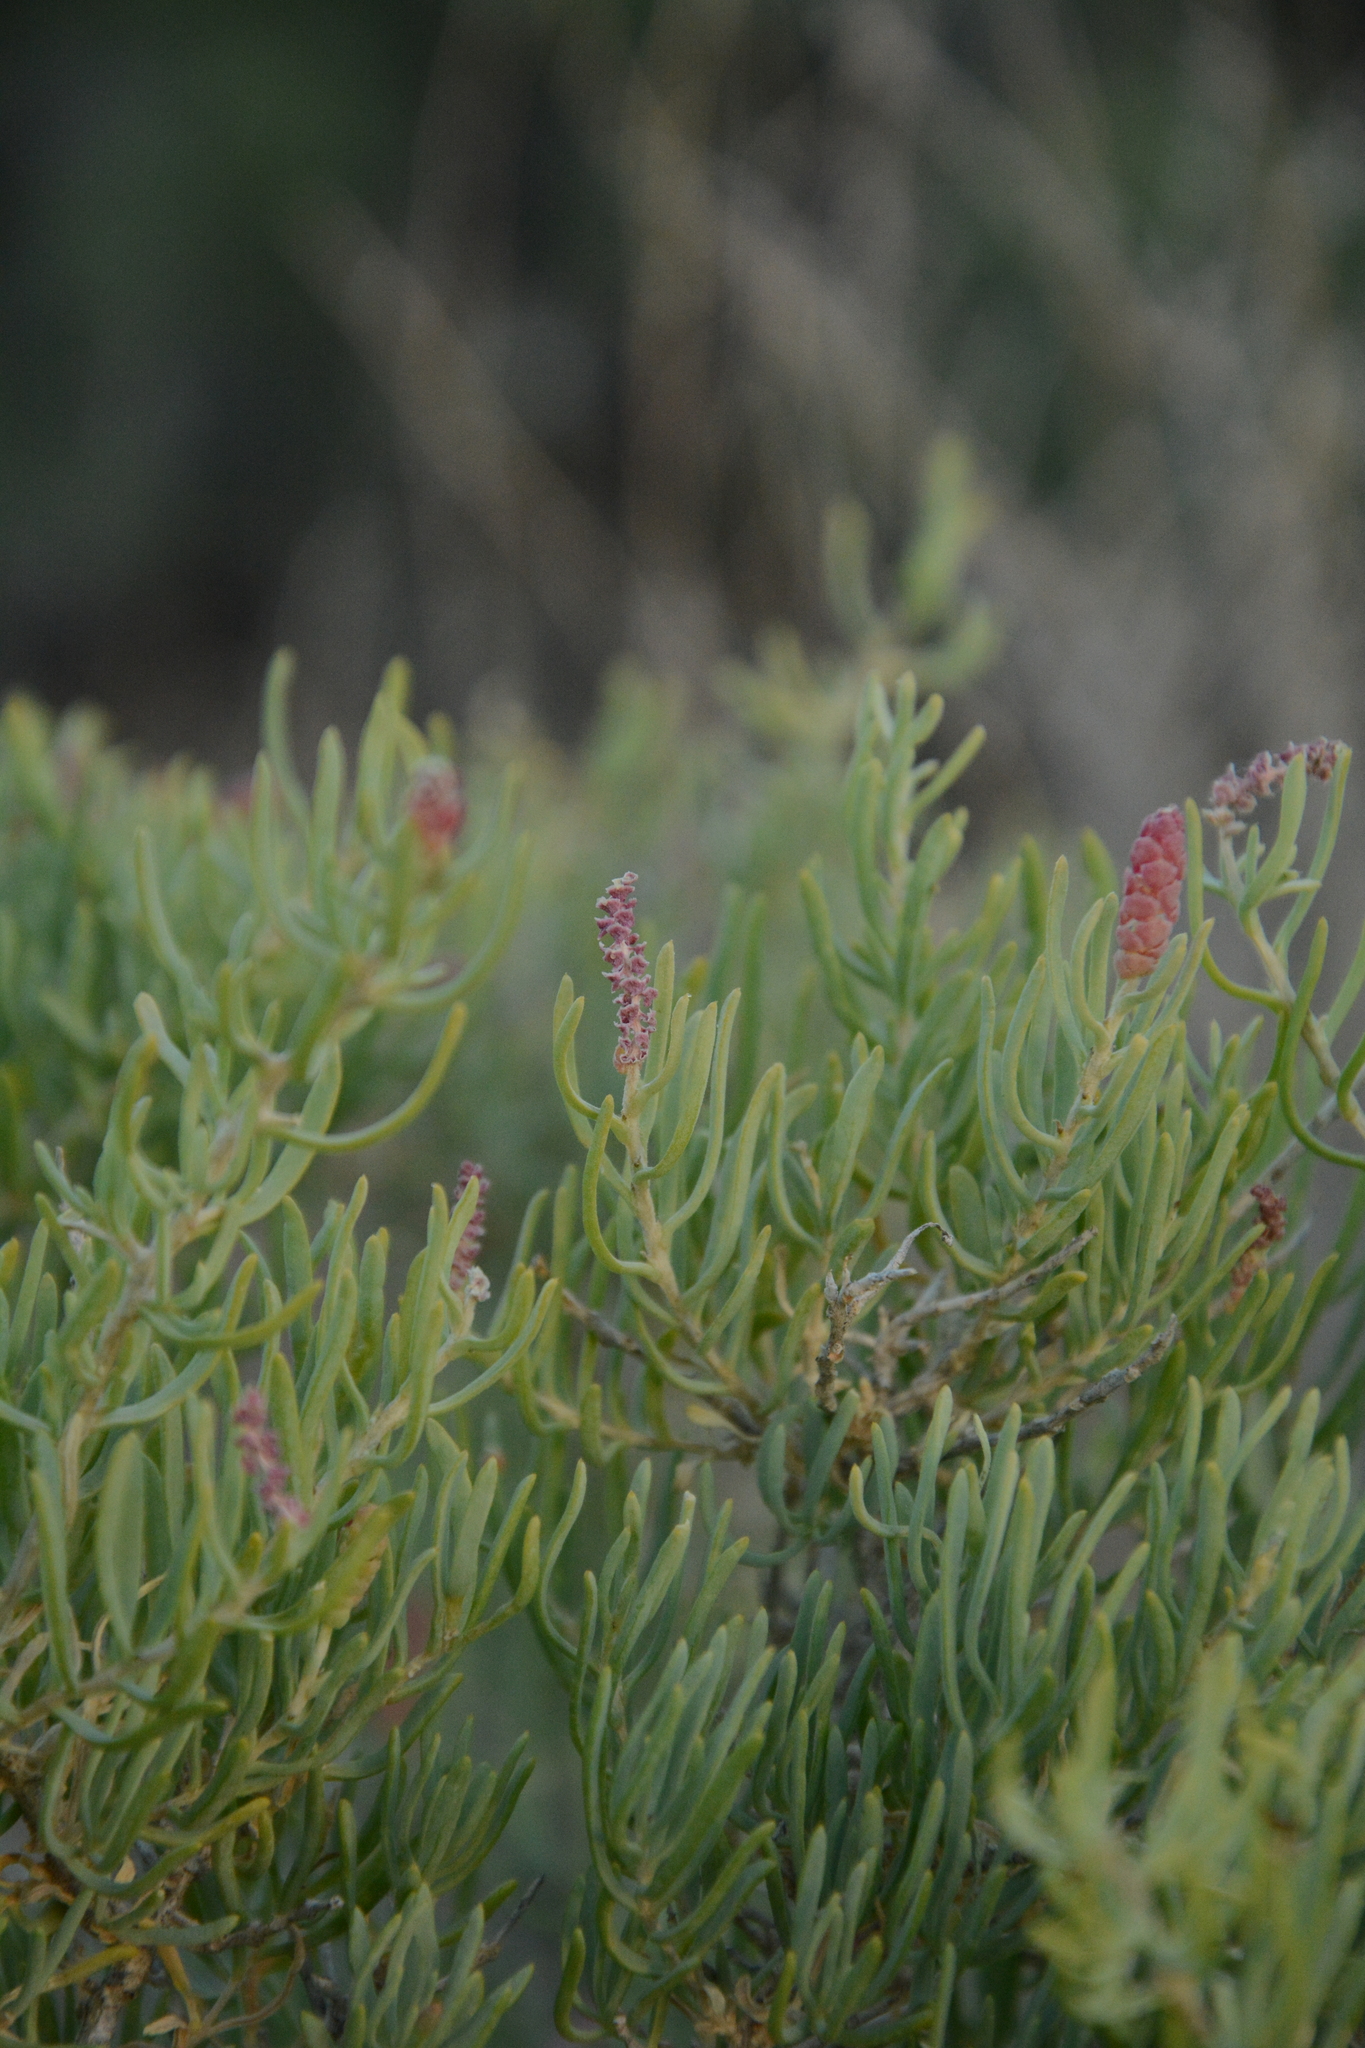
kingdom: Plantae
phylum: Tracheophyta
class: Magnoliopsida
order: Caryophyllales
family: Sarcobataceae
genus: Sarcobatus
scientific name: Sarcobatus vermiculatus
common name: Greasewood
